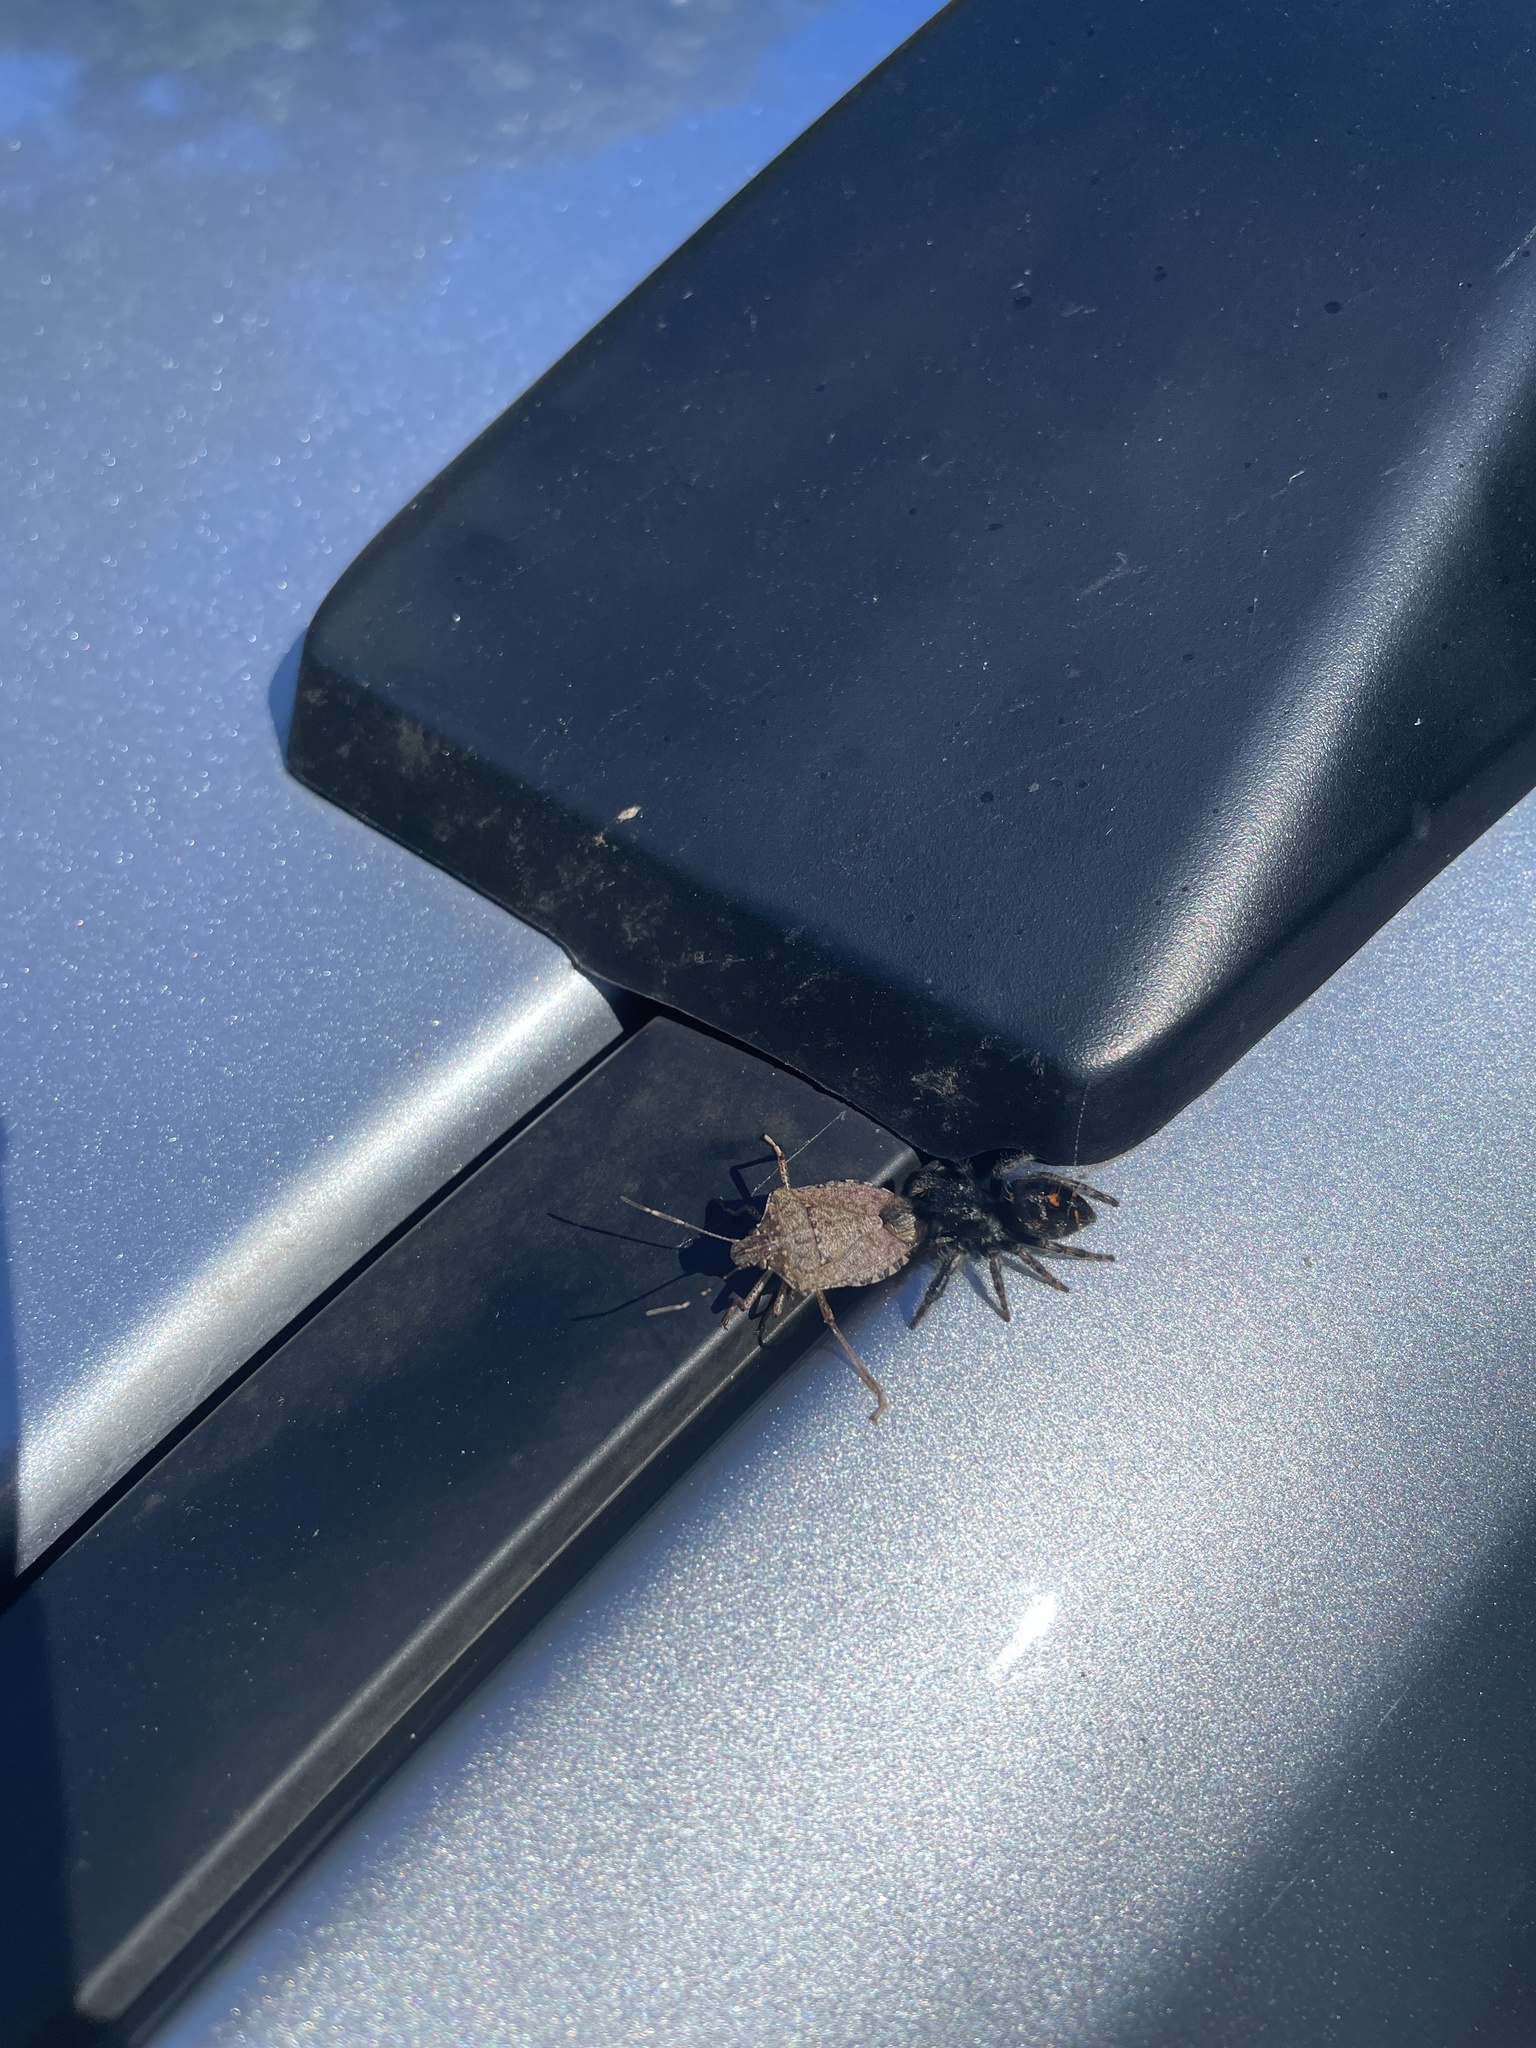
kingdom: Animalia
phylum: Arthropoda
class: Arachnida
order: Araneae
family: Salticidae
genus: Phidippus
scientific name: Phidippus audax
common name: Bold jumper
